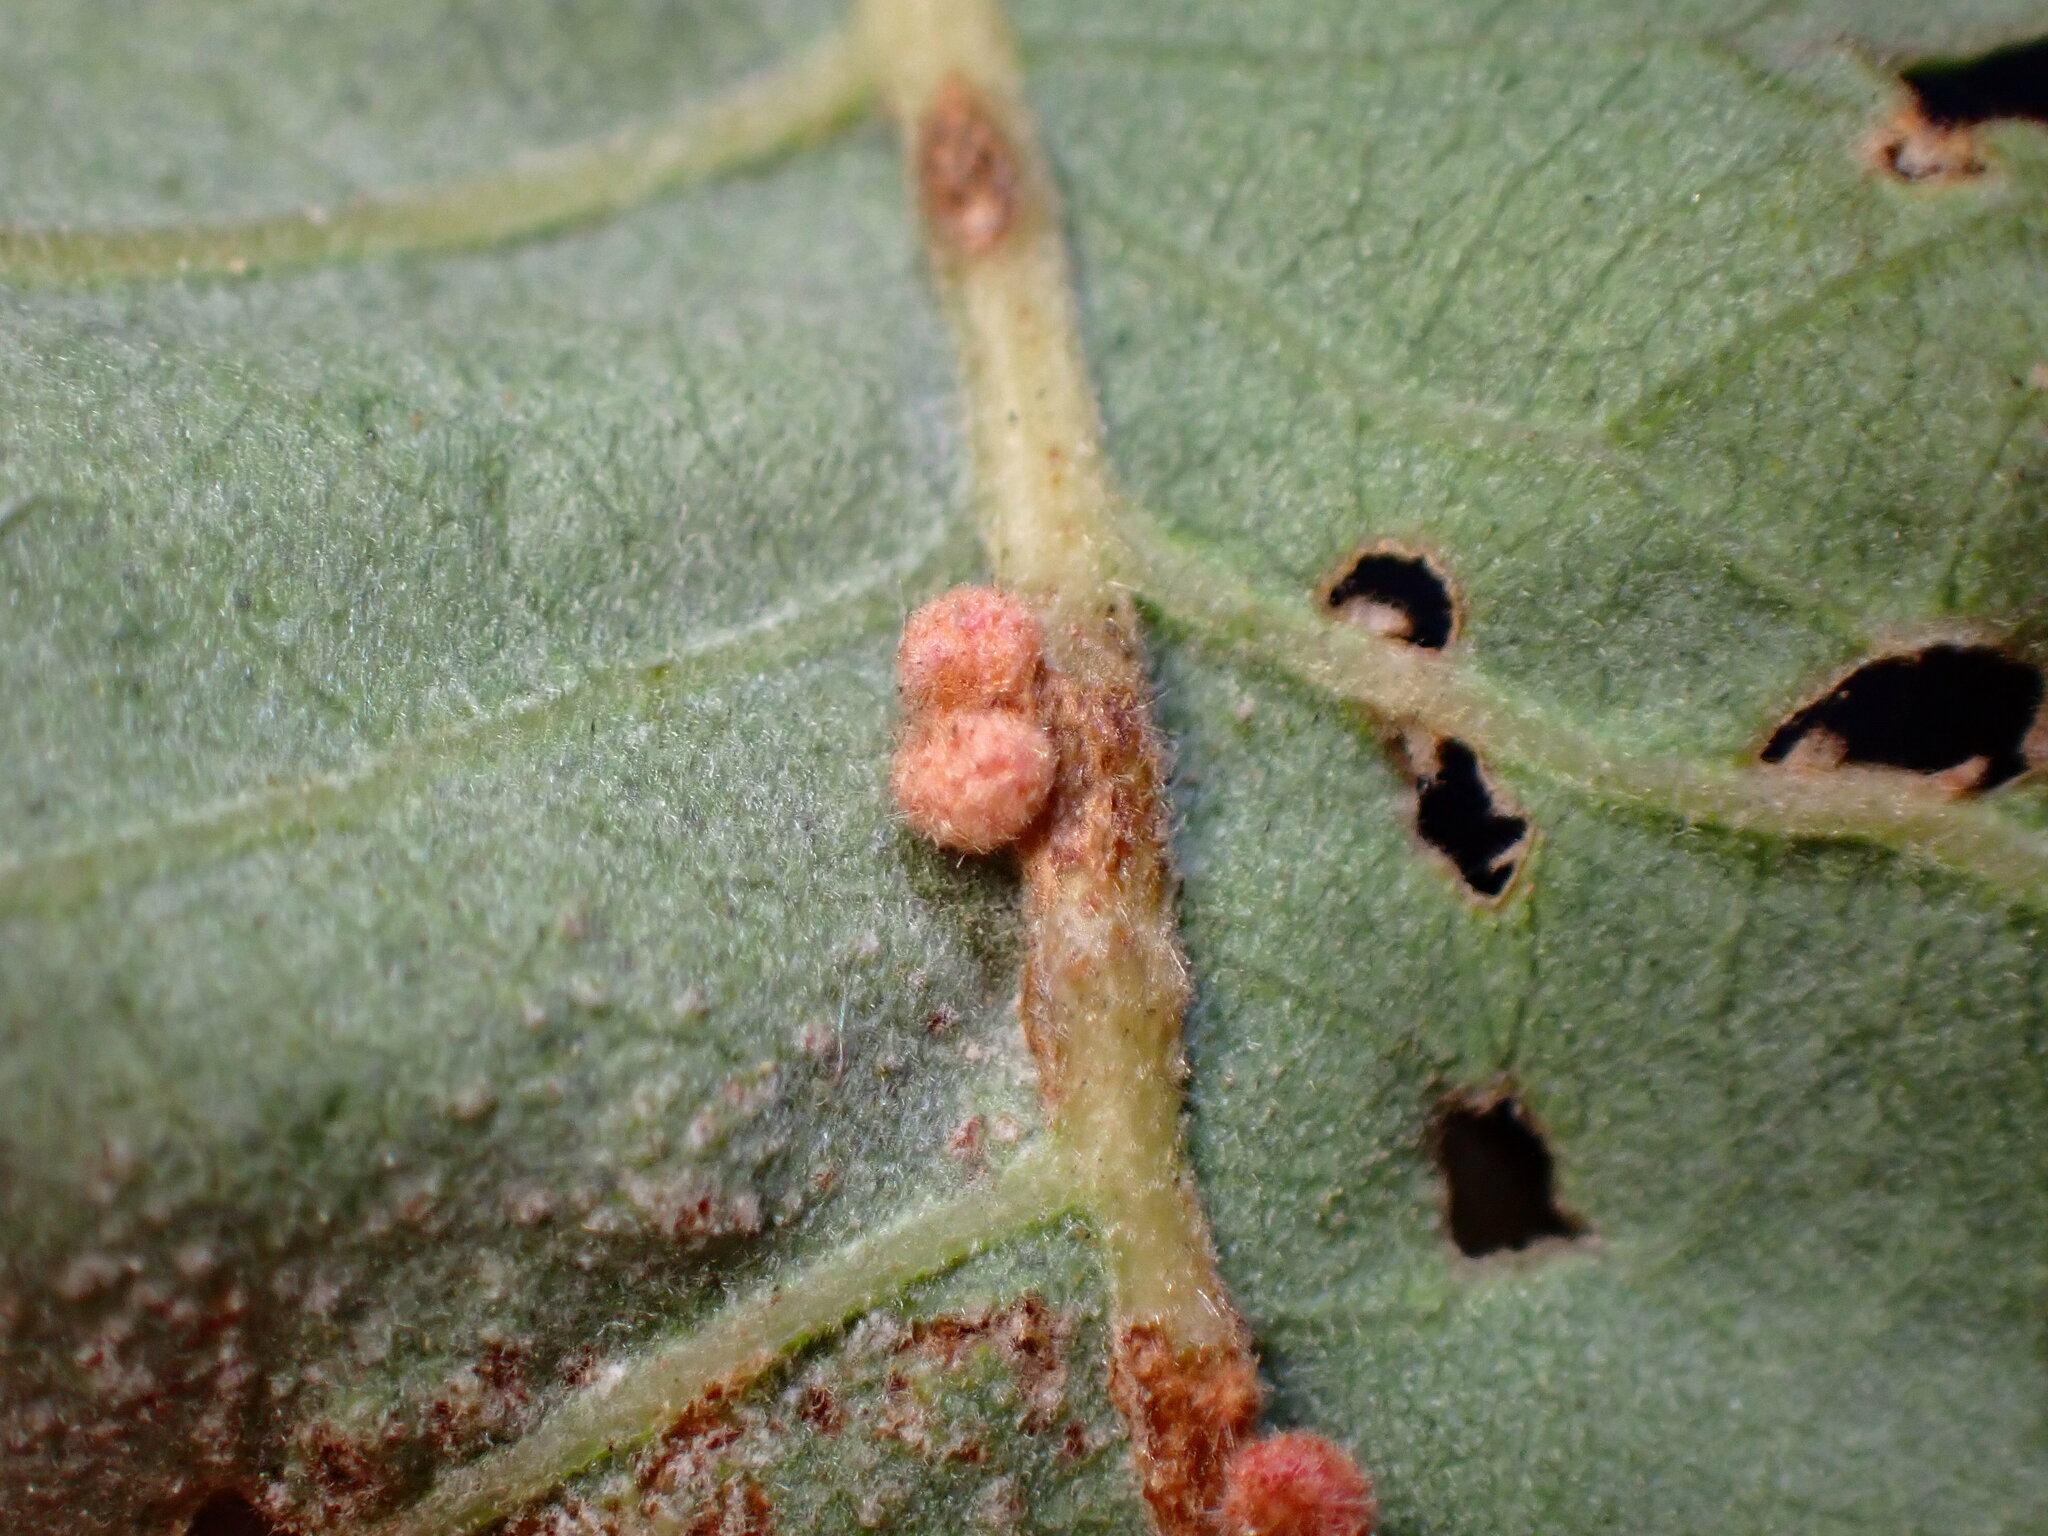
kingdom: Animalia
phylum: Arthropoda
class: Insecta
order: Hymenoptera
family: Cynipidae
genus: Andricus
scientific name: Andricus
